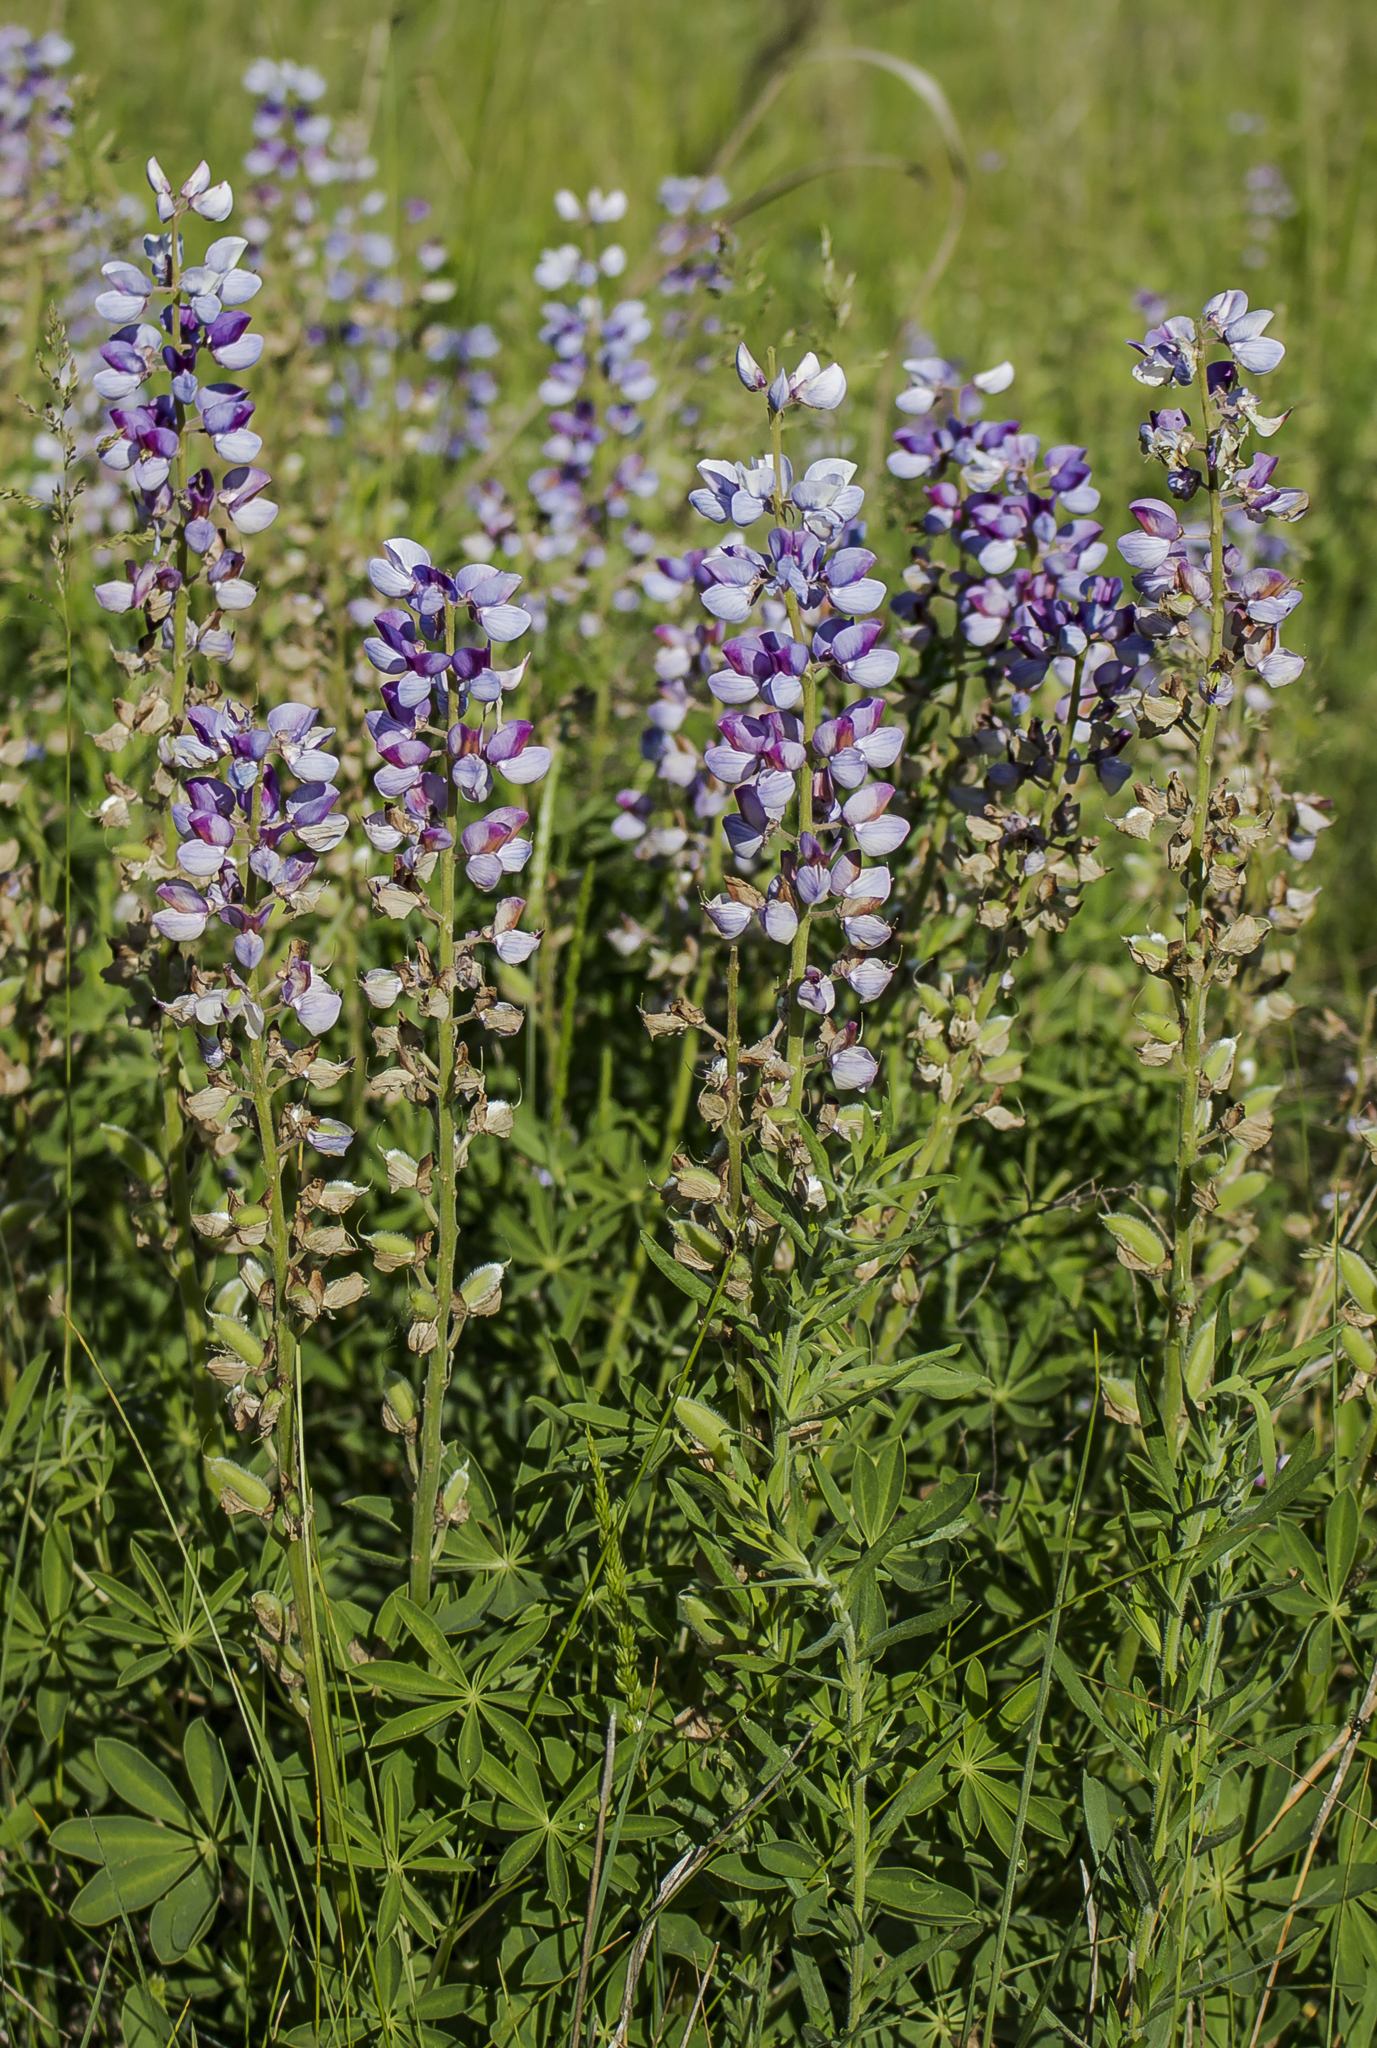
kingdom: Plantae
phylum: Tracheophyta
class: Magnoliopsida
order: Fabales
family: Fabaceae
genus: Lupinus
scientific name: Lupinus perennis
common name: Sundial lupine
